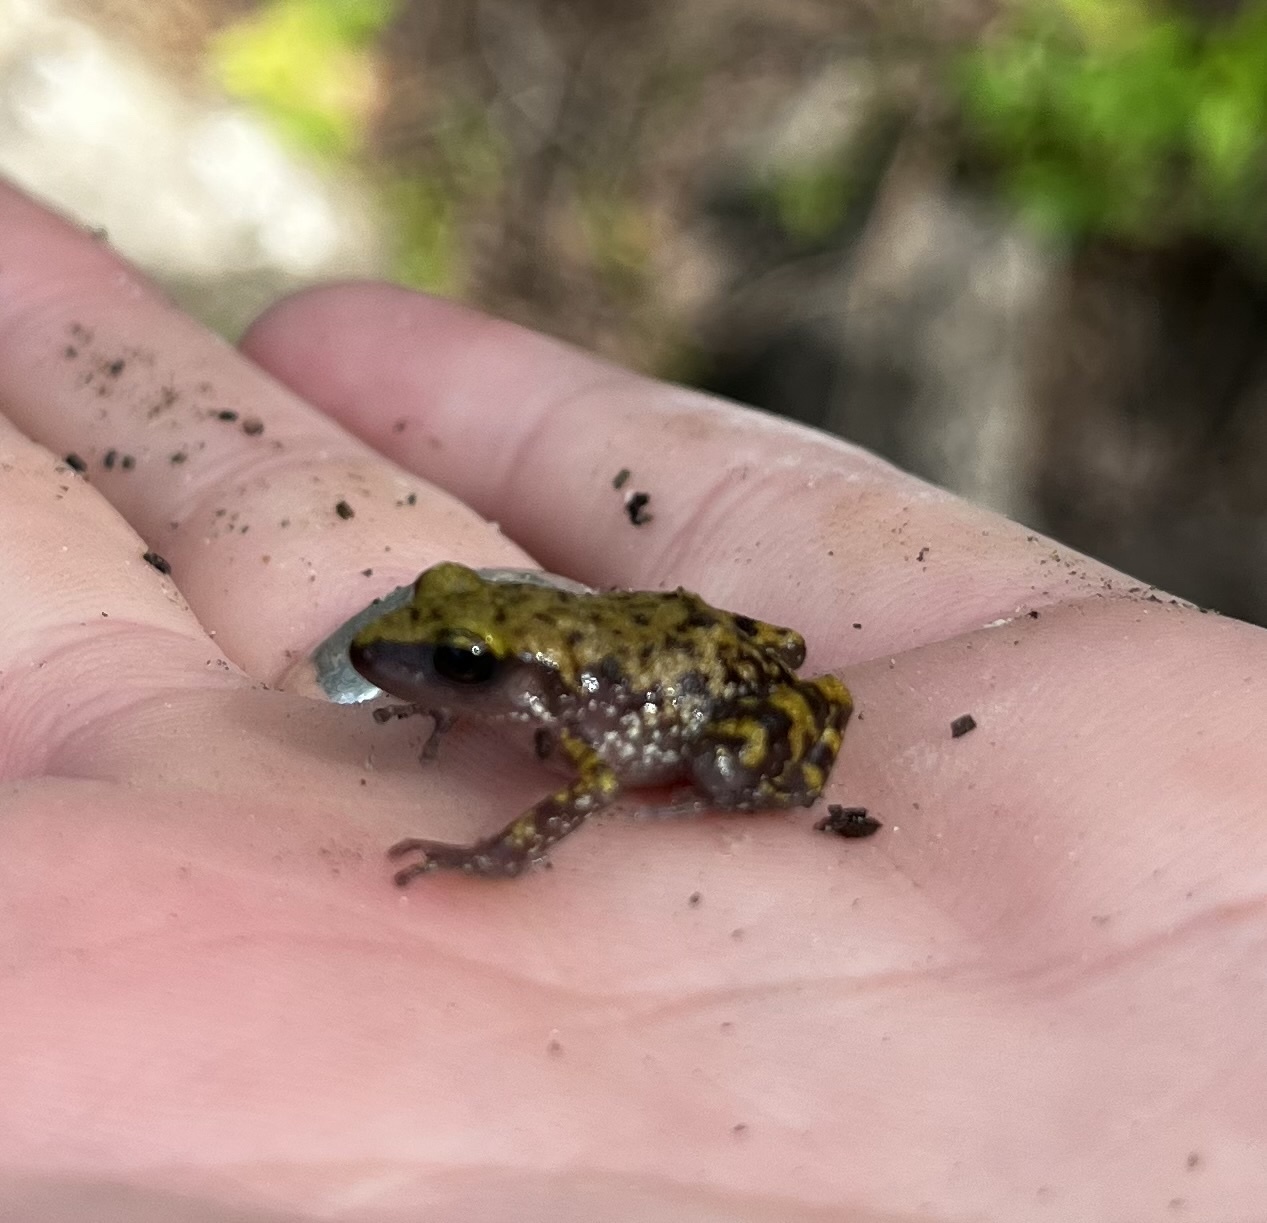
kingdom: Animalia
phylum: Chordata
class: Amphibia
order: Anura
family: Eleutherodactylidae
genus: Eleutherodactylus
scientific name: Eleutherodactylus marnockii
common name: Cliff chirping frog
